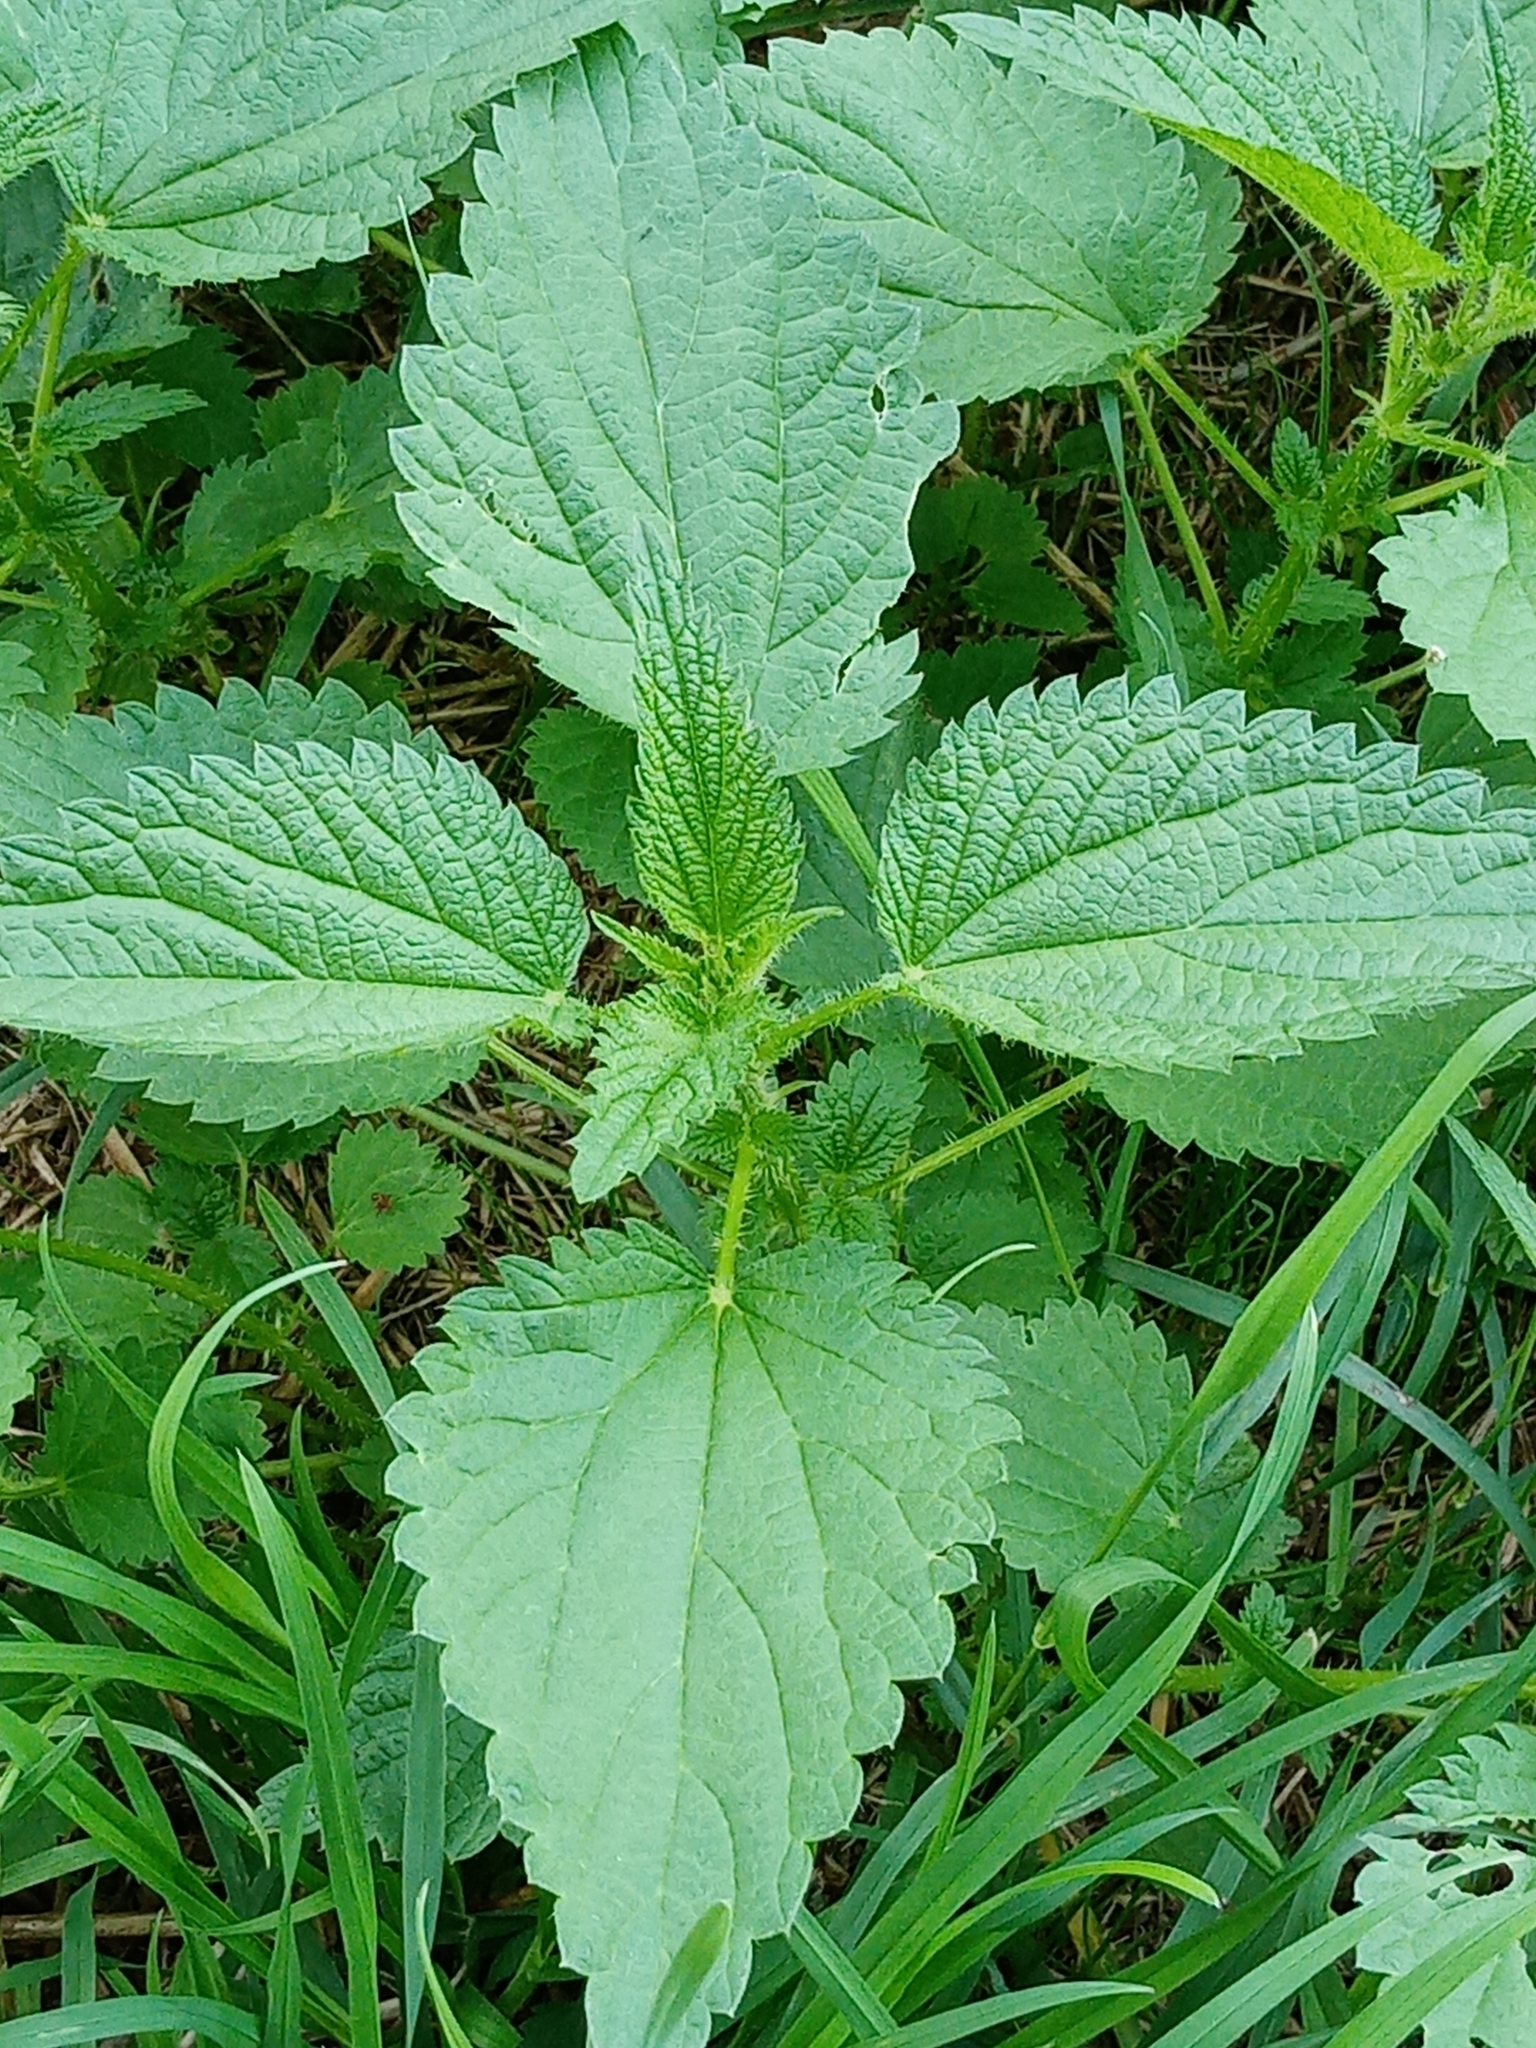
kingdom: Plantae
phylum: Tracheophyta
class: Magnoliopsida
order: Rosales
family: Urticaceae
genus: Urtica
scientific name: Urtica dioica
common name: Common nettle
